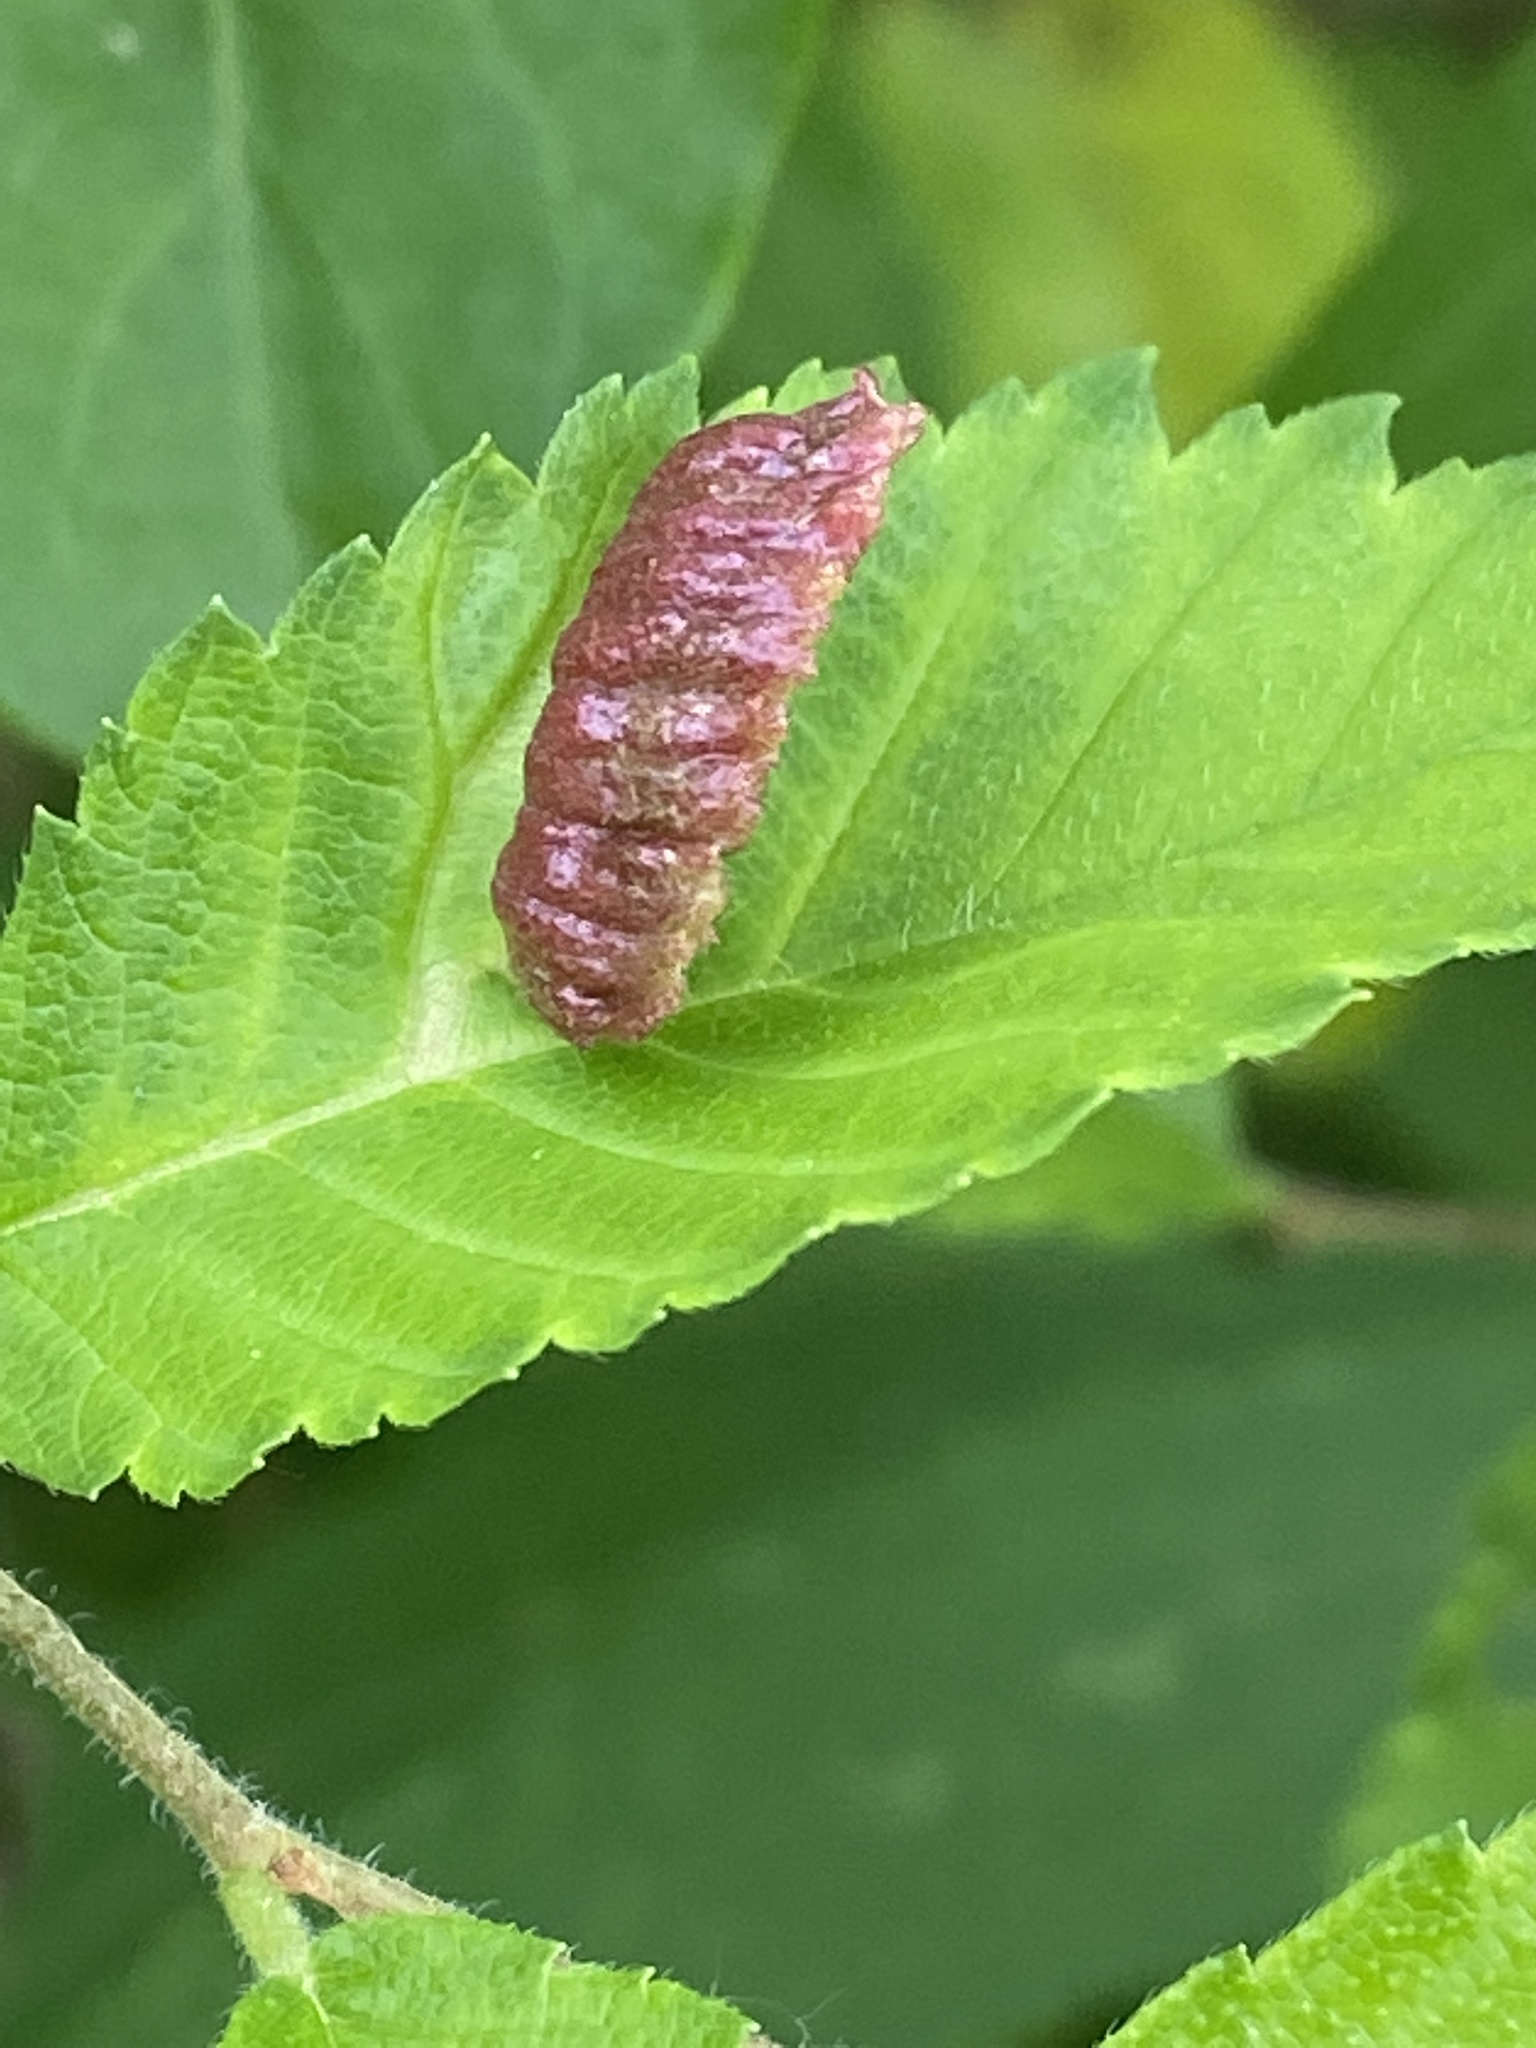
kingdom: Animalia
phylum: Arthropoda
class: Insecta
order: Hemiptera
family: Aphididae
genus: Colopha
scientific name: Colopha ulmicola
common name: Elm cockscombgall aphid
